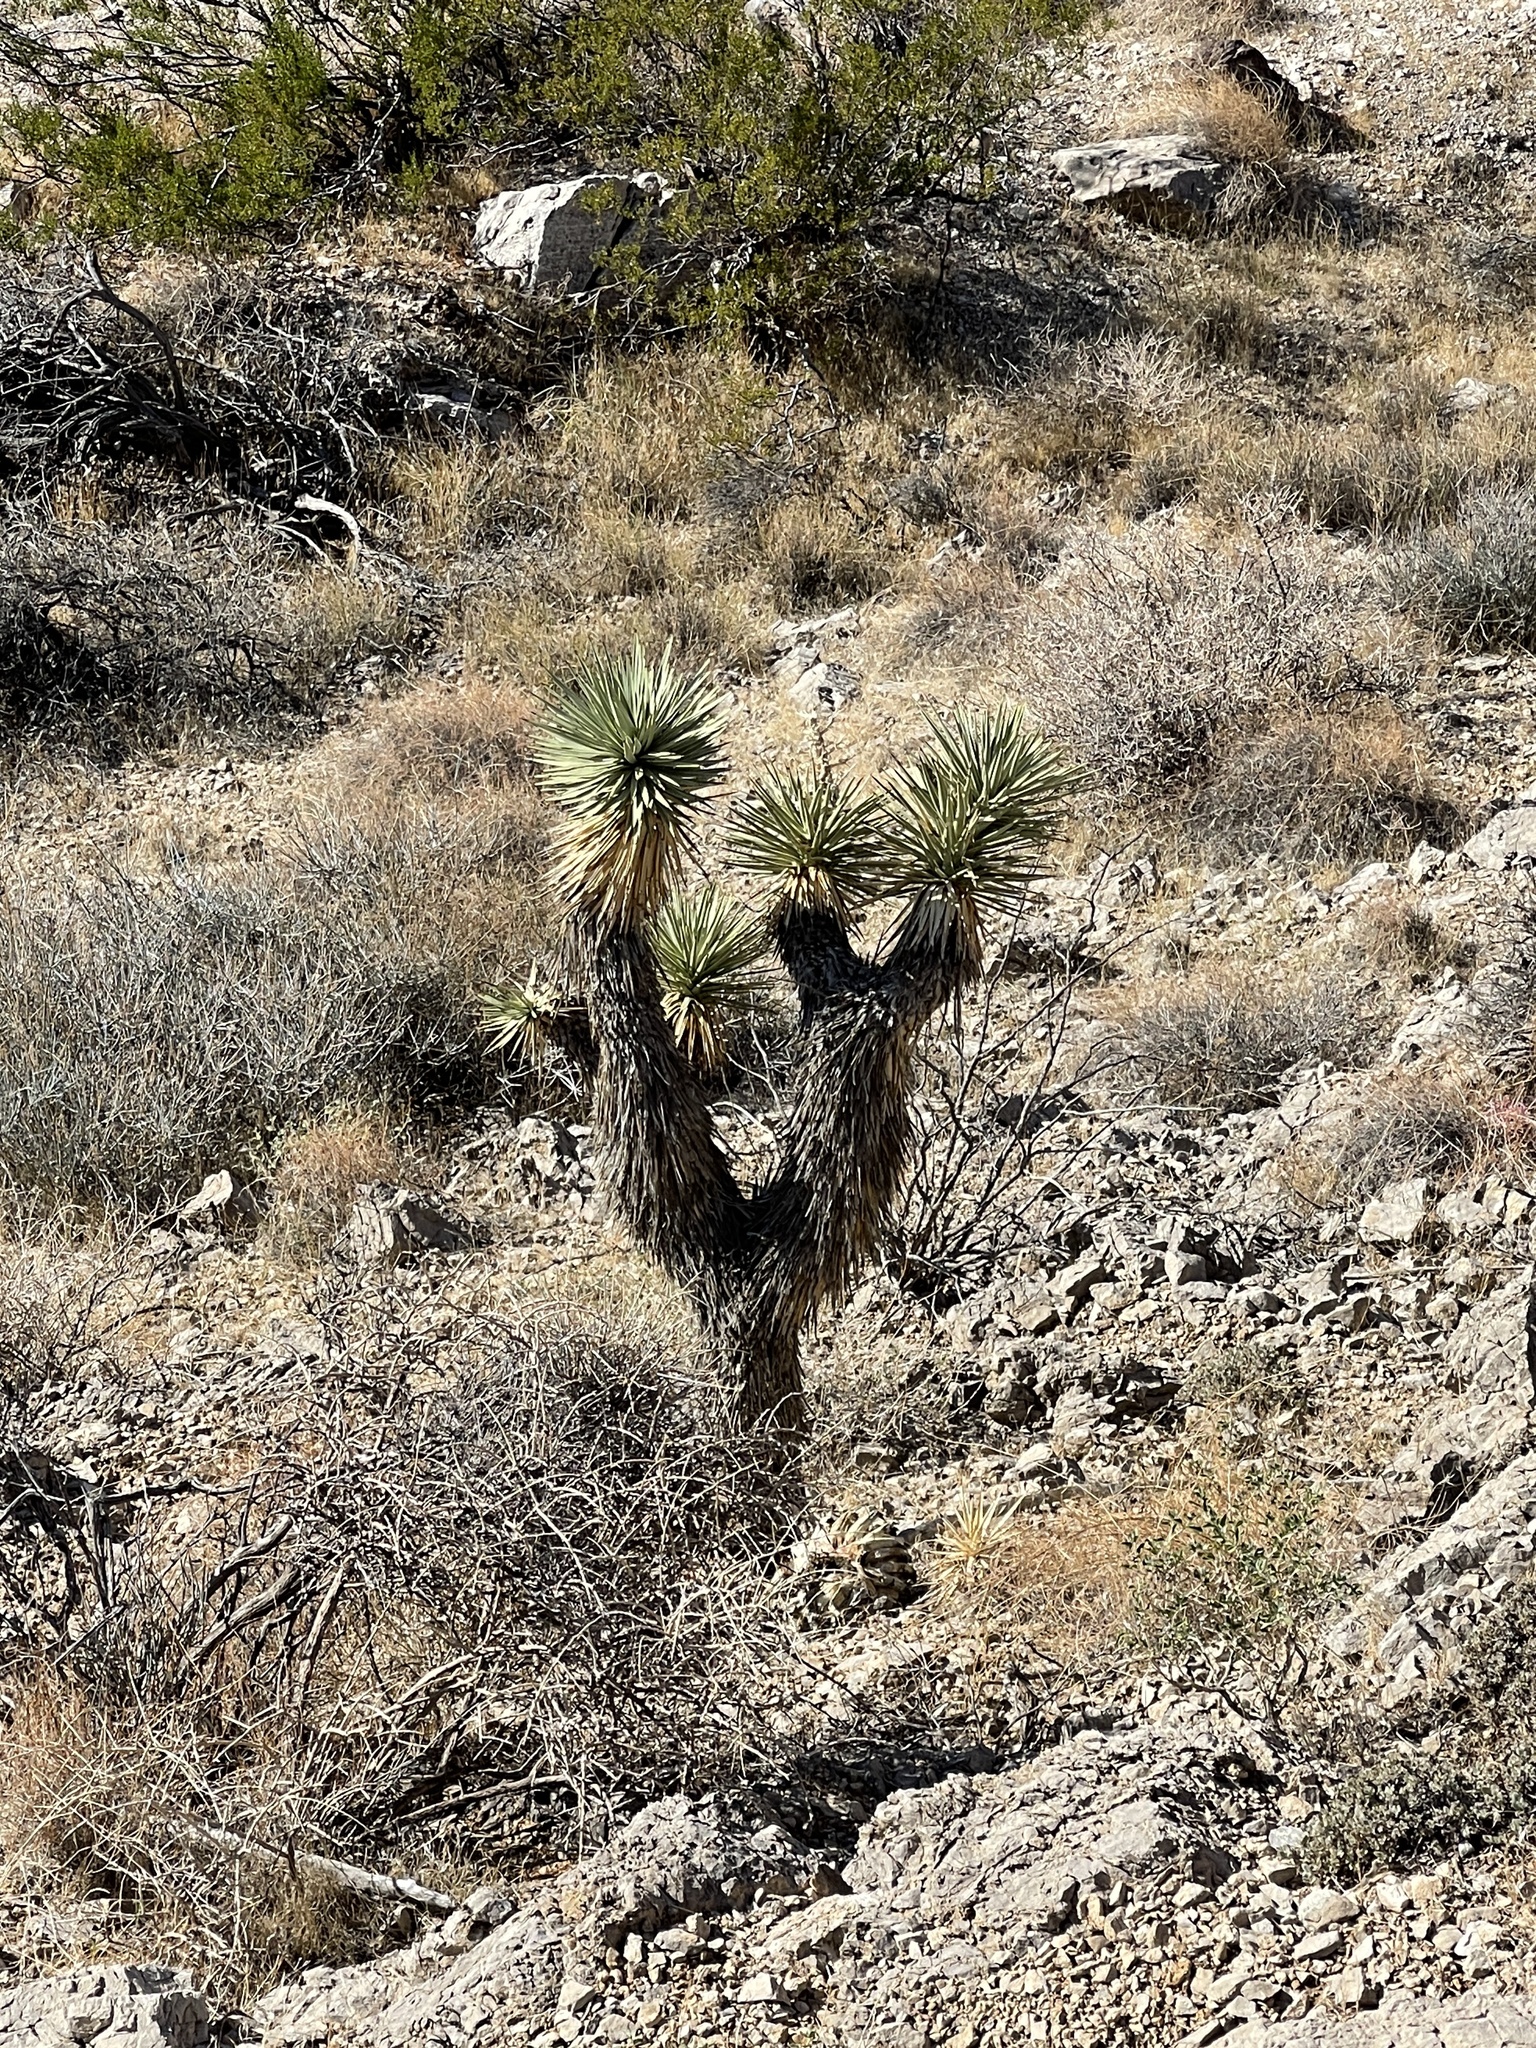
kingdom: Plantae
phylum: Tracheophyta
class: Liliopsida
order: Asparagales
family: Asparagaceae
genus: Yucca
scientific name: Yucca brevifolia
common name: Joshua tree
